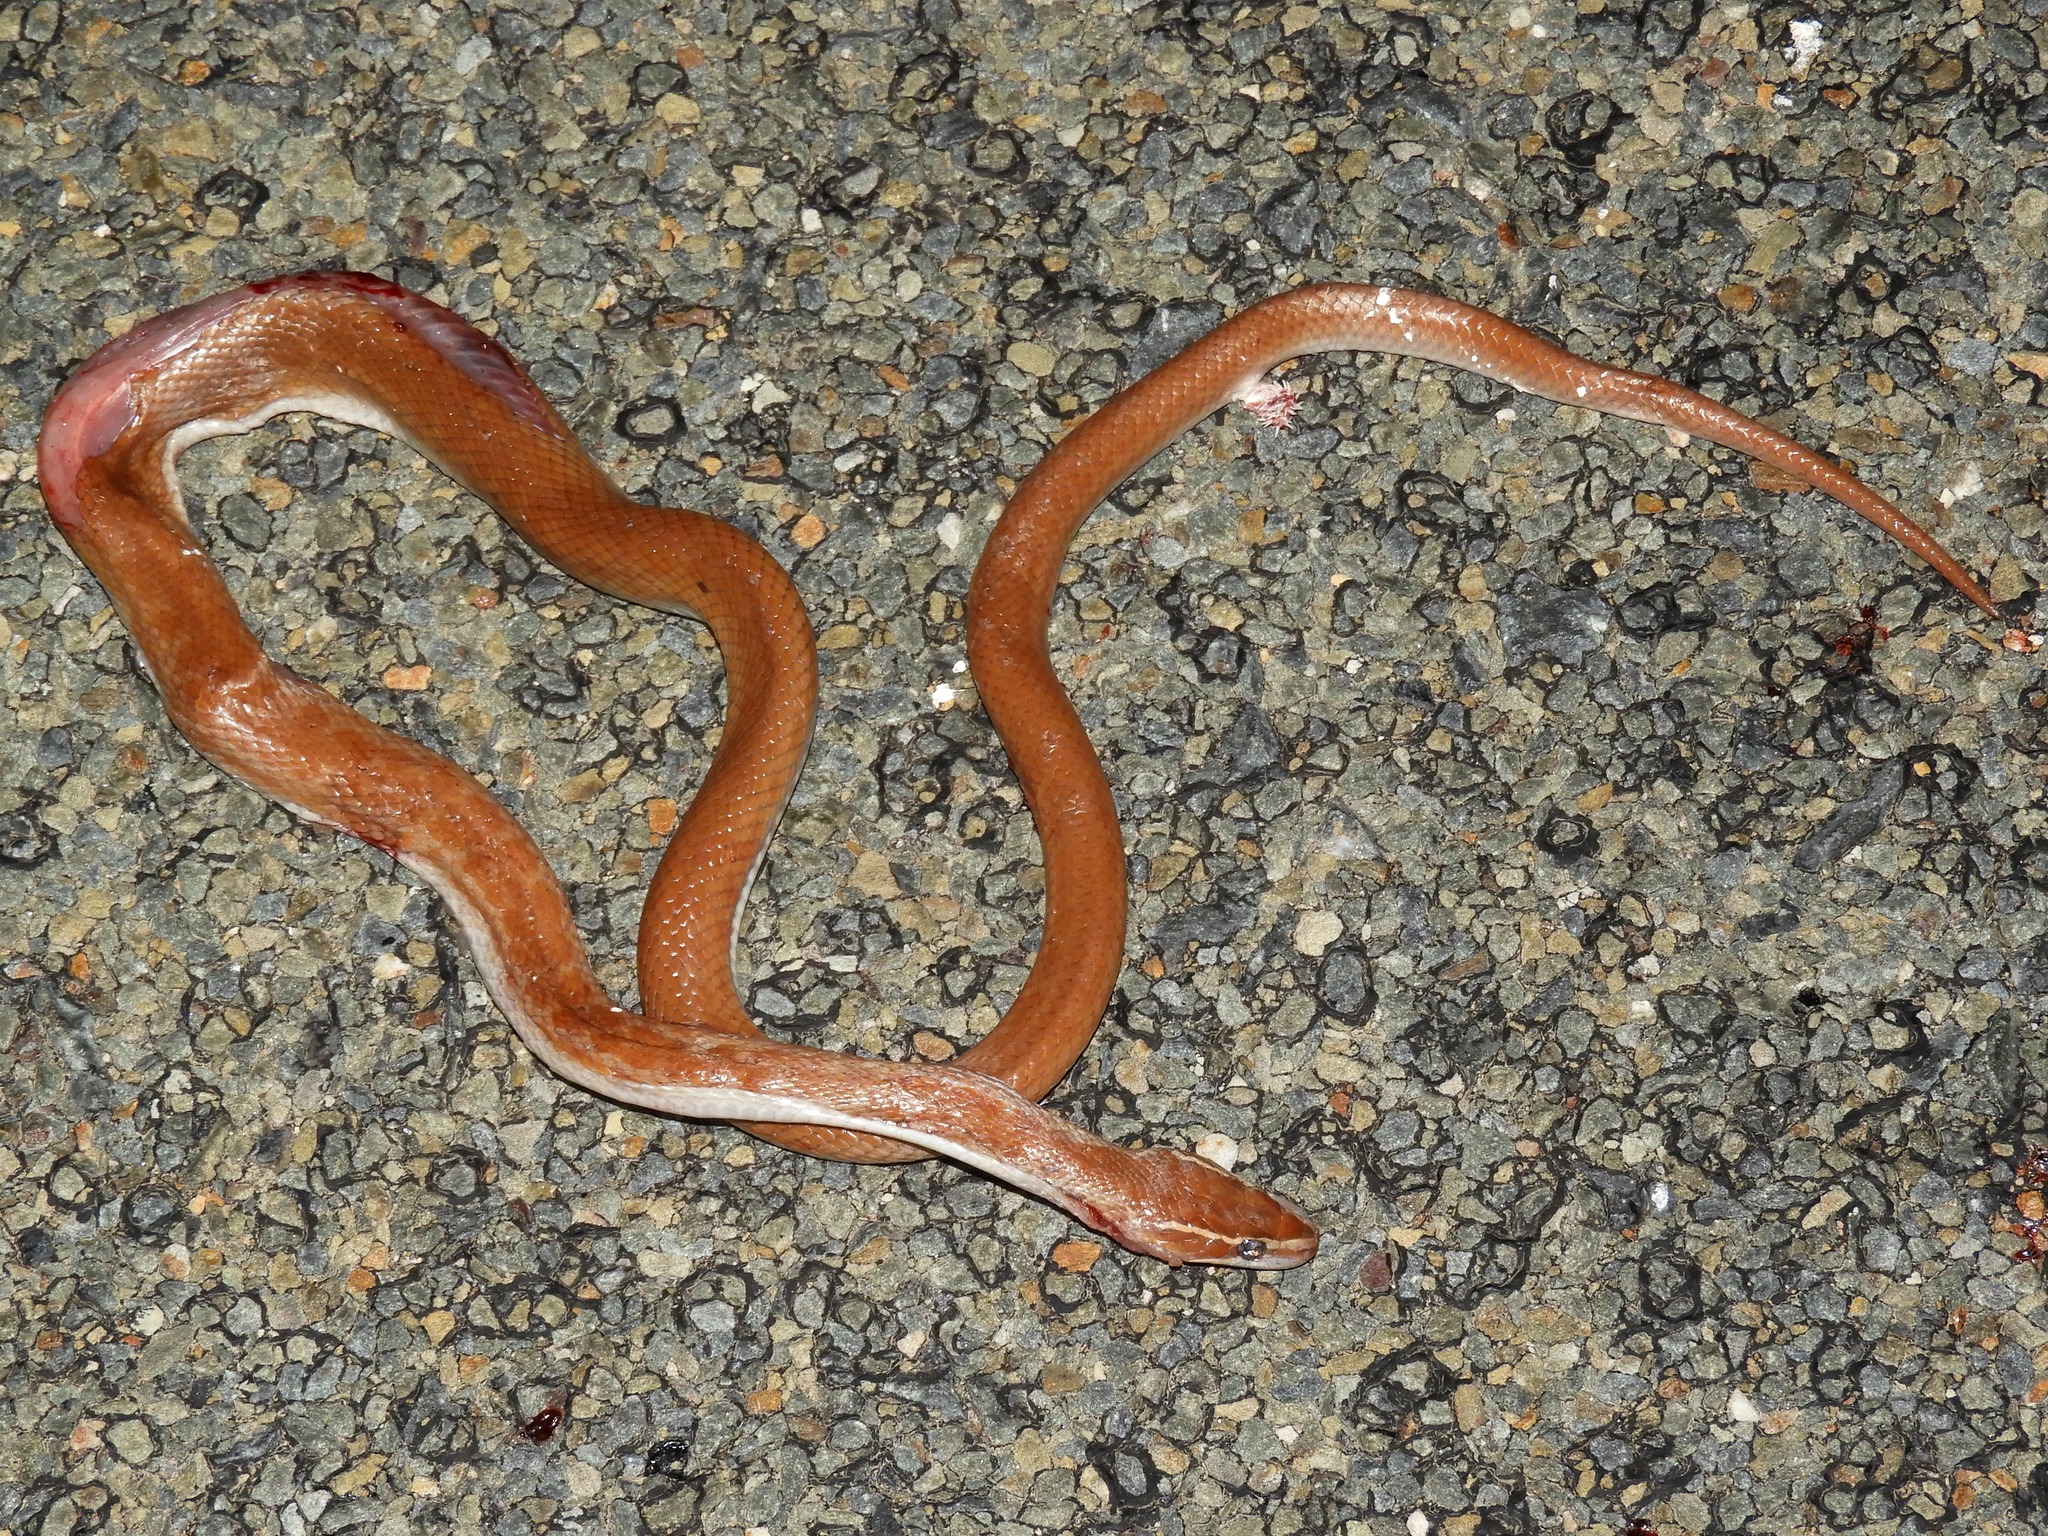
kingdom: Animalia
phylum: Chordata
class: Squamata
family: Lamprophiidae
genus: Boaedon
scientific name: Boaedon capensis
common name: Brown house snake
